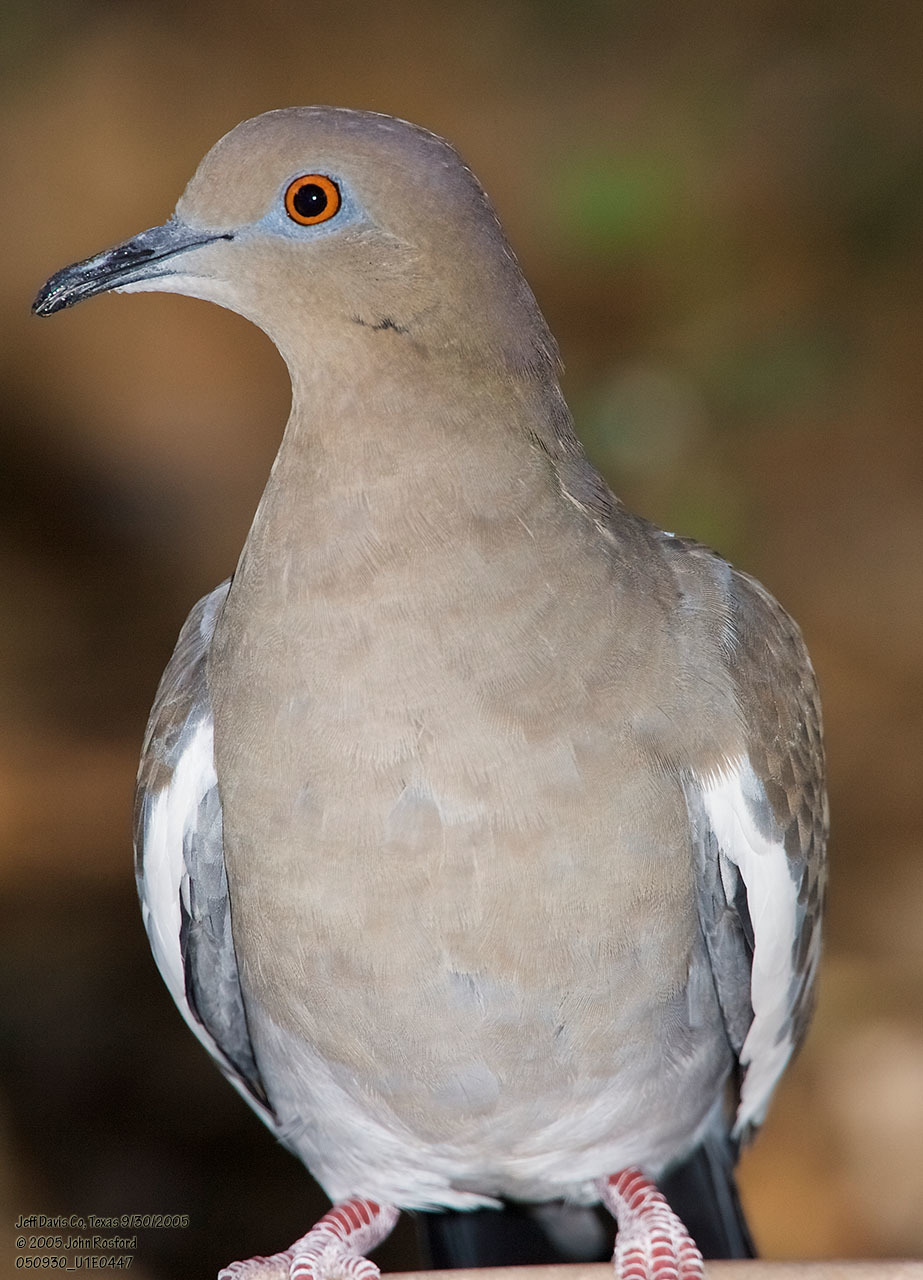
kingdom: Animalia
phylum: Chordata
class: Aves
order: Columbiformes
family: Columbidae
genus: Zenaida
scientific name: Zenaida asiatica
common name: White-winged dove
